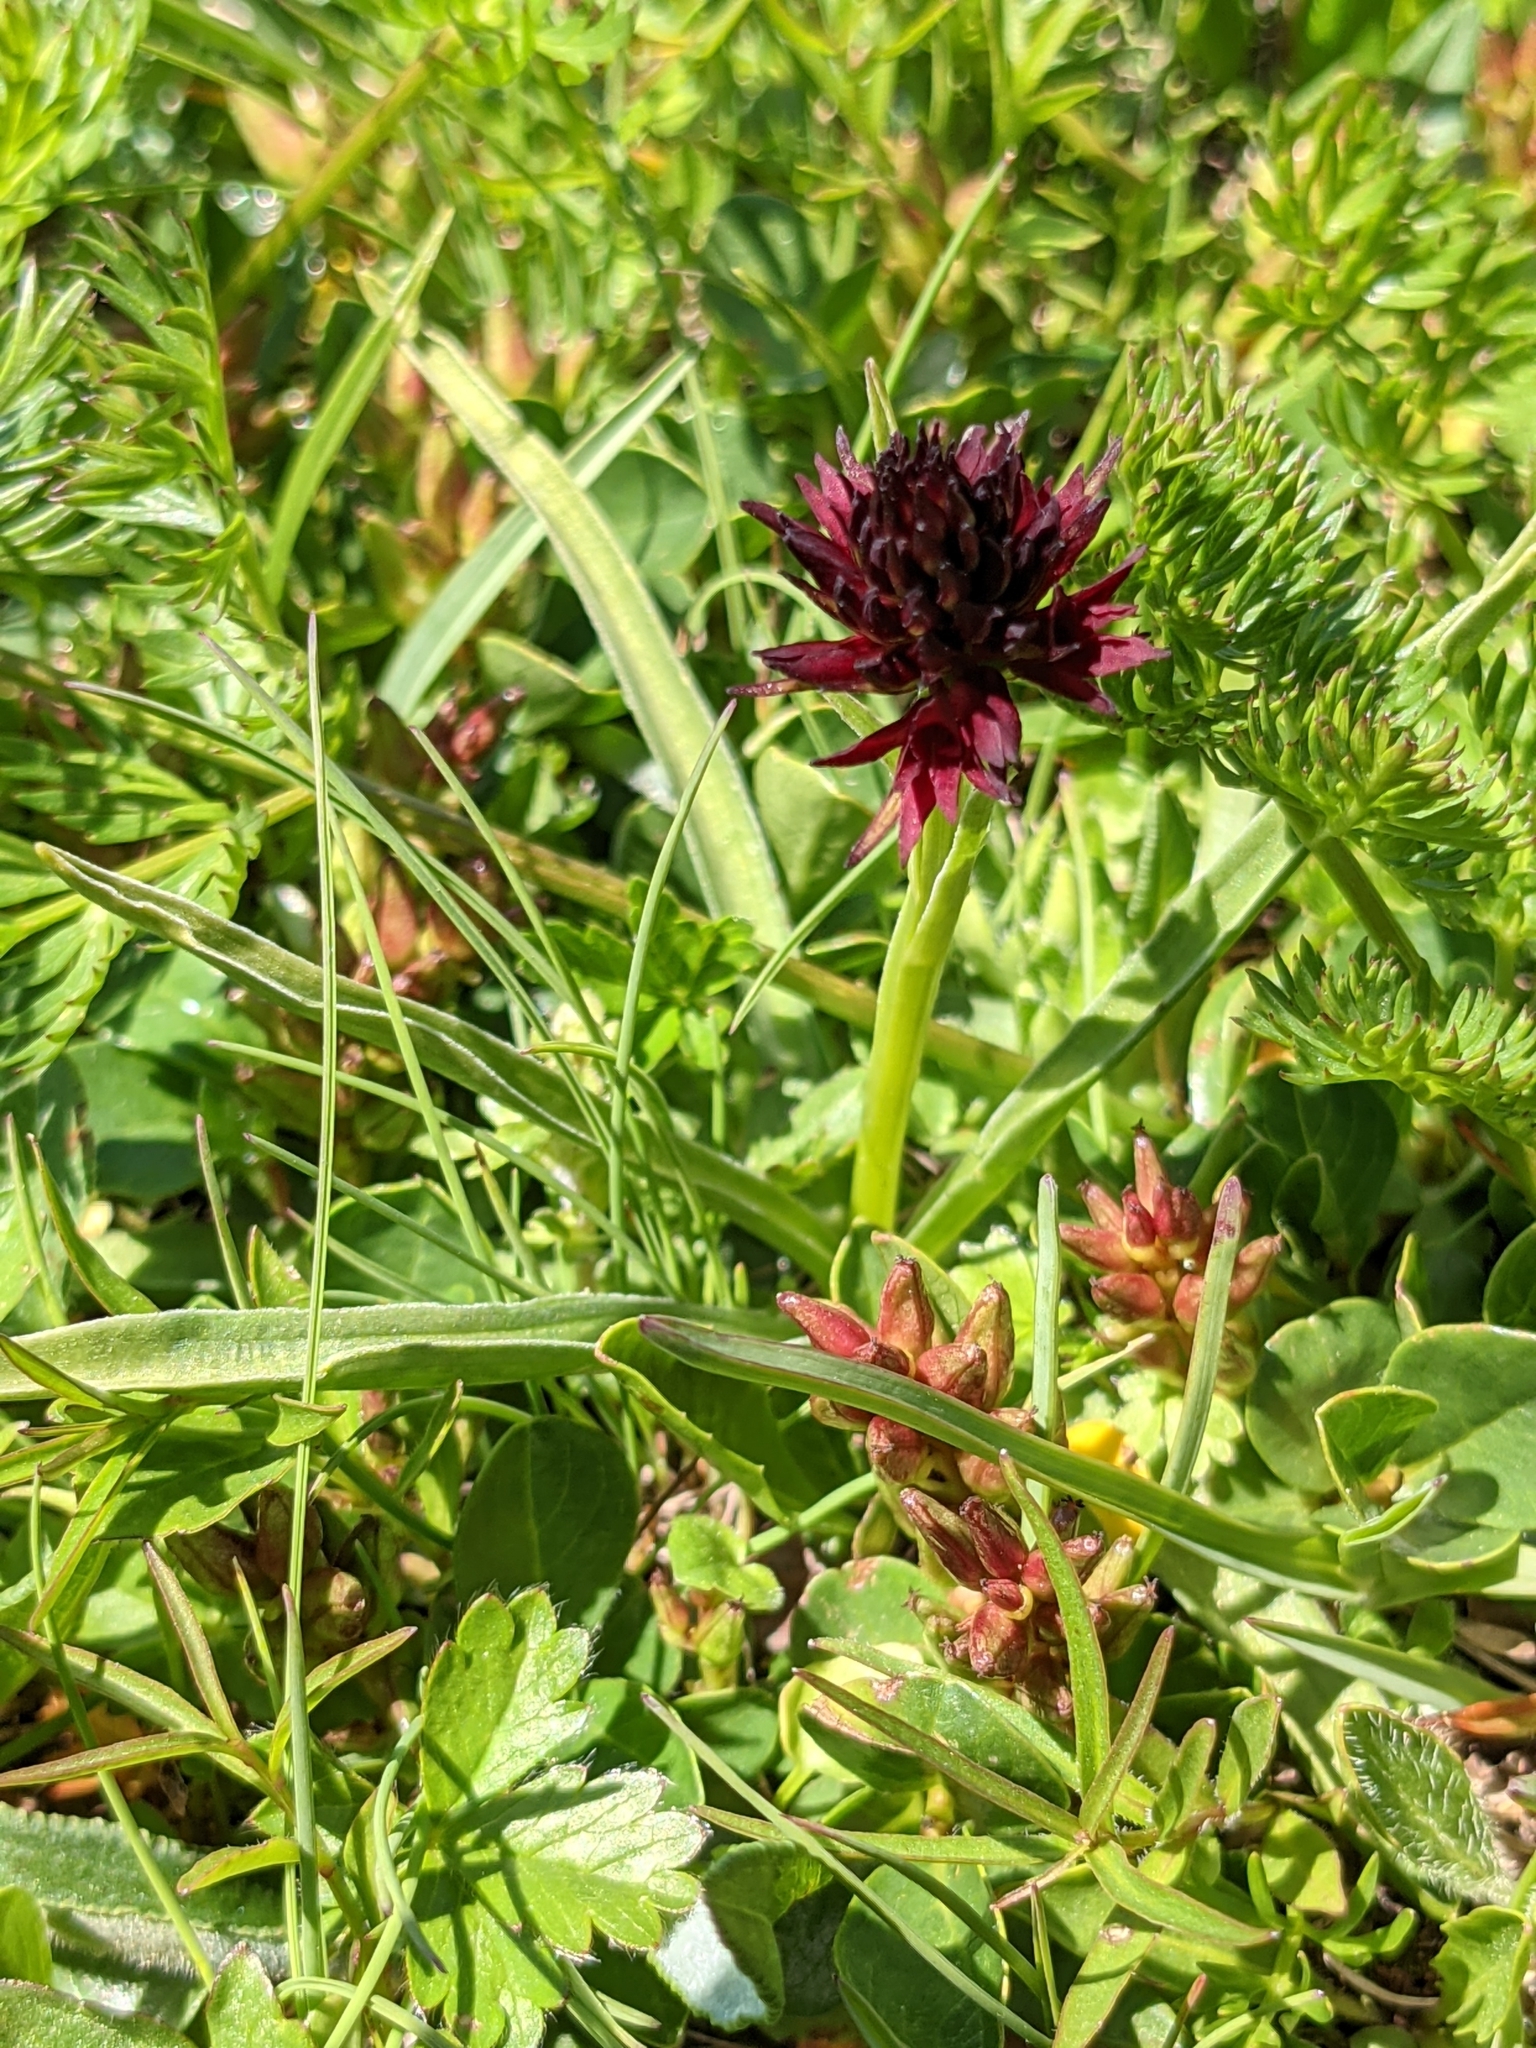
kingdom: Plantae
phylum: Tracheophyta
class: Liliopsida
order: Asparagales
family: Orchidaceae
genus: Gymnadenia
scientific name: Gymnadenia rhellicani
